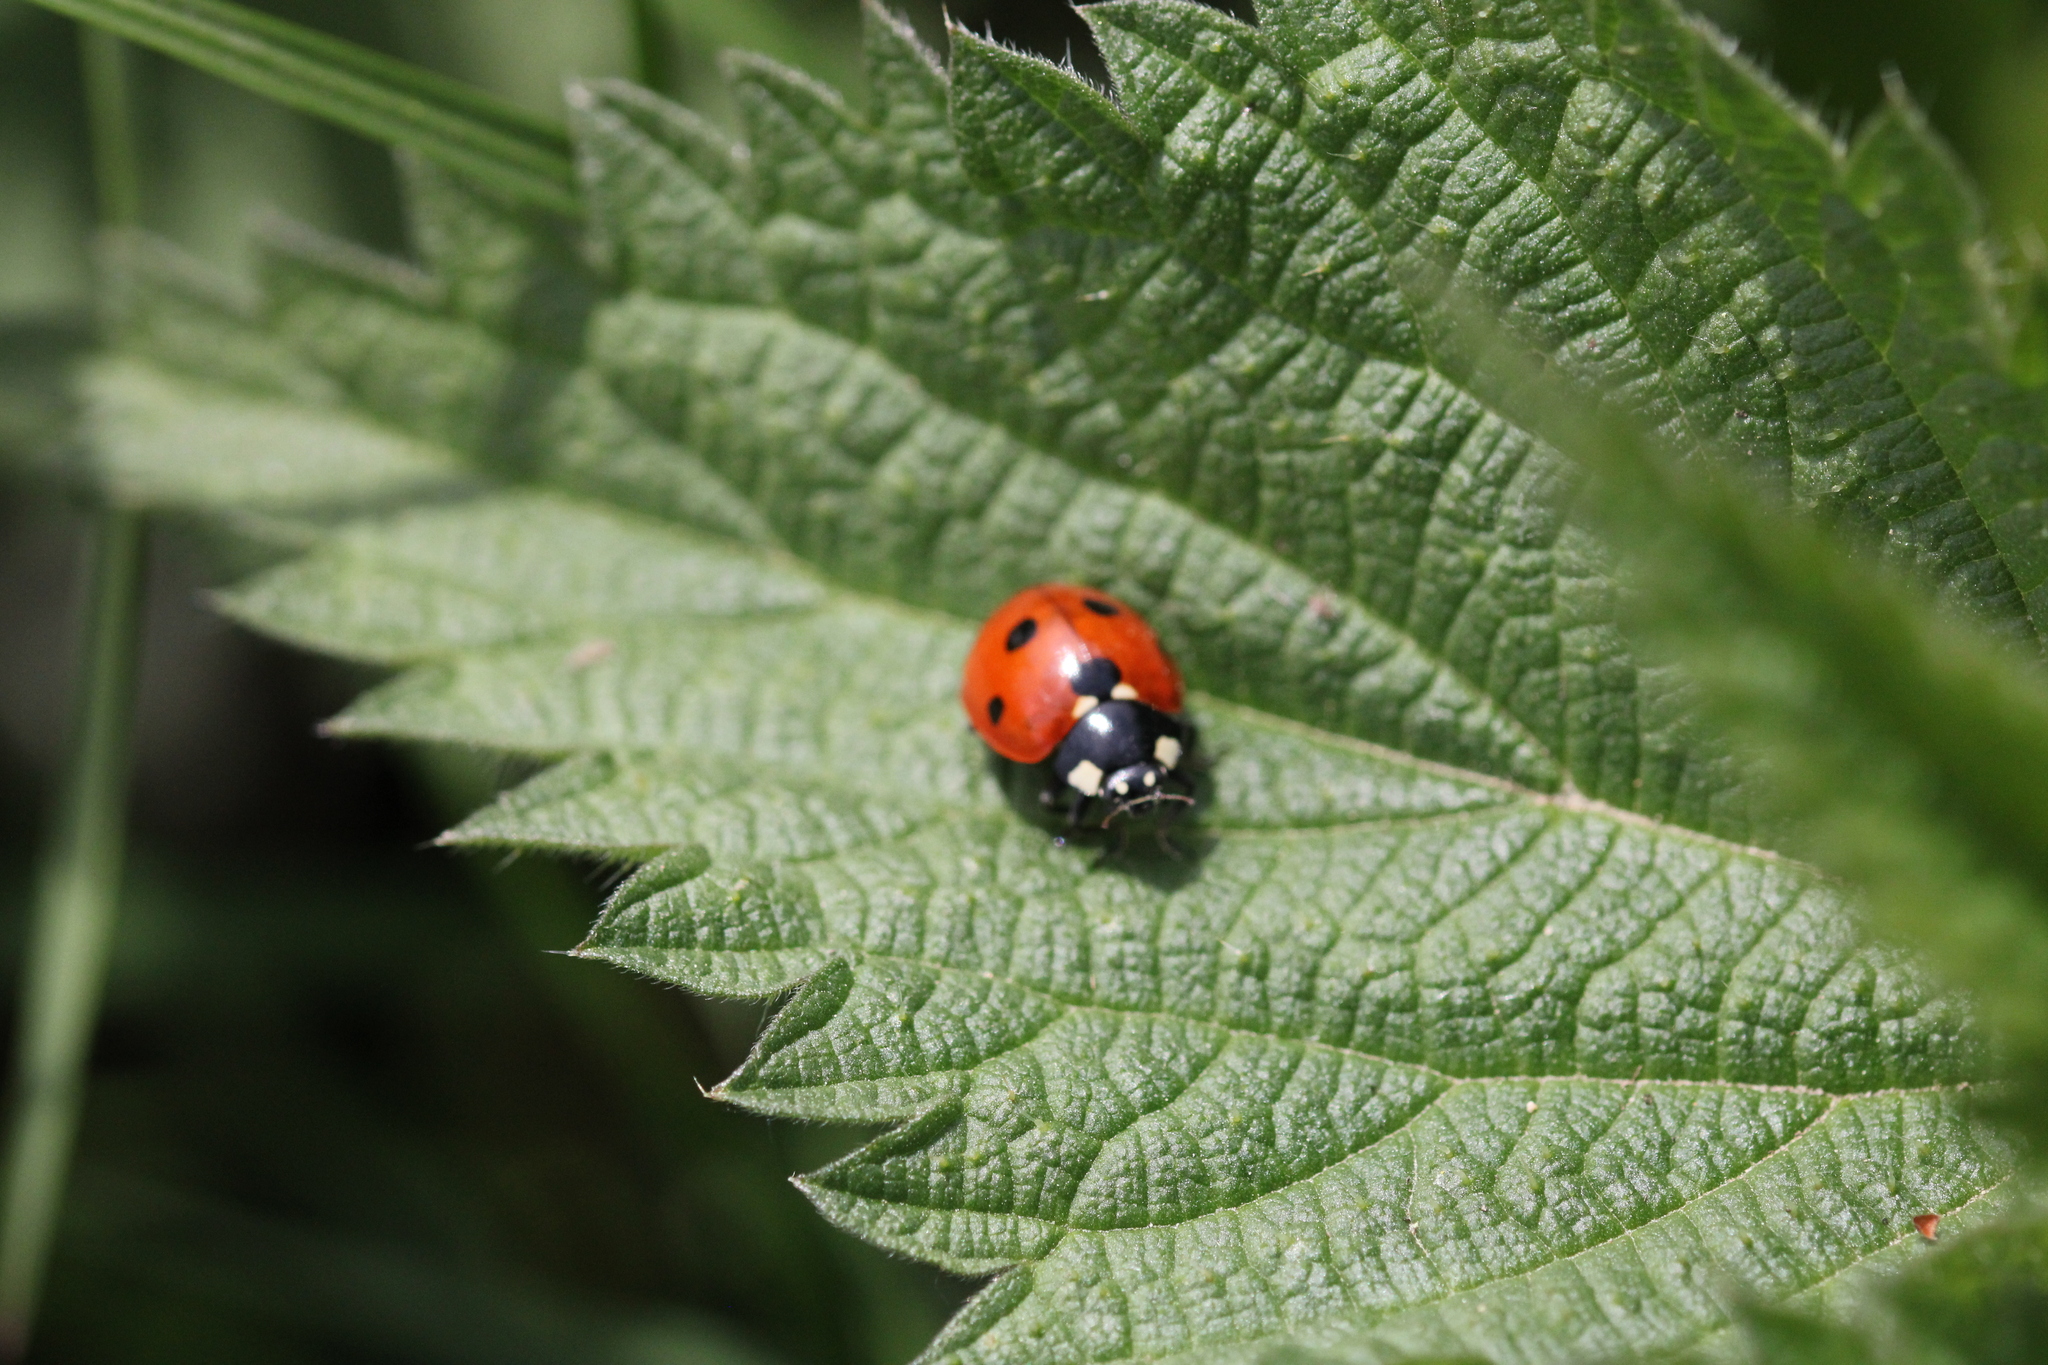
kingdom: Animalia
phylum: Arthropoda
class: Insecta
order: Coleoptera
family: Coccinellidae
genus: Coccinella
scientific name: Coccinella septempunctata
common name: Sevenspotted lady beetle
